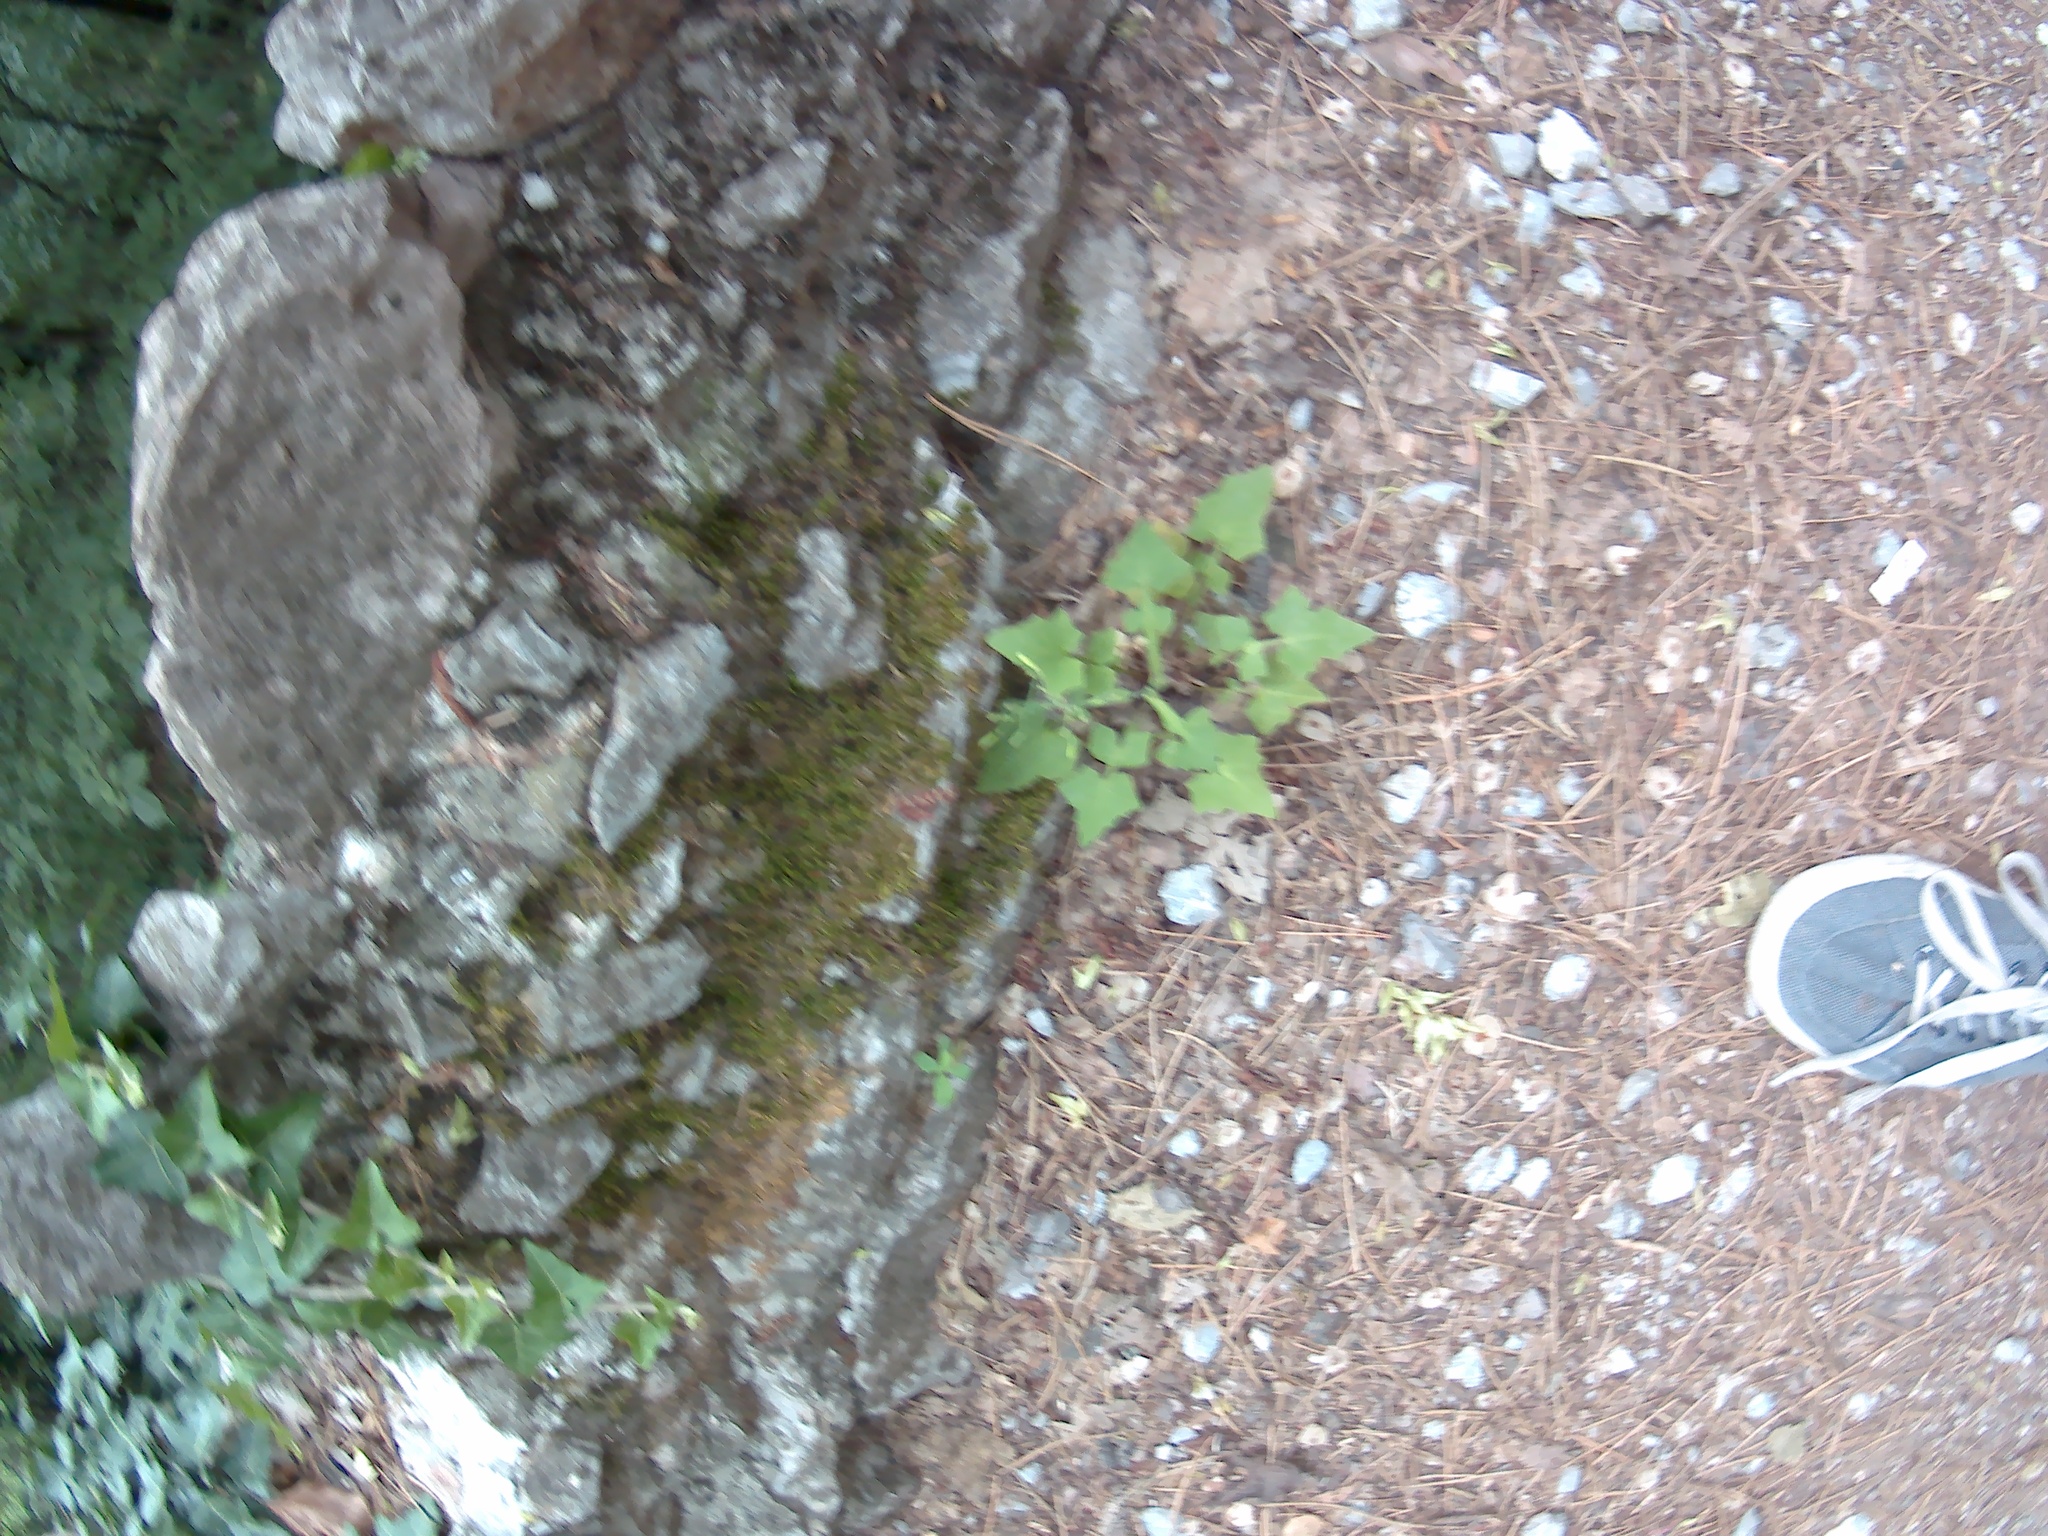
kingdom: Plantae
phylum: Tracheophyta
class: Magnoliopsida
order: Asterales
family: Asteraceae
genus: Mycelis
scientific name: Mycelis muralis
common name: Wall lettuce
